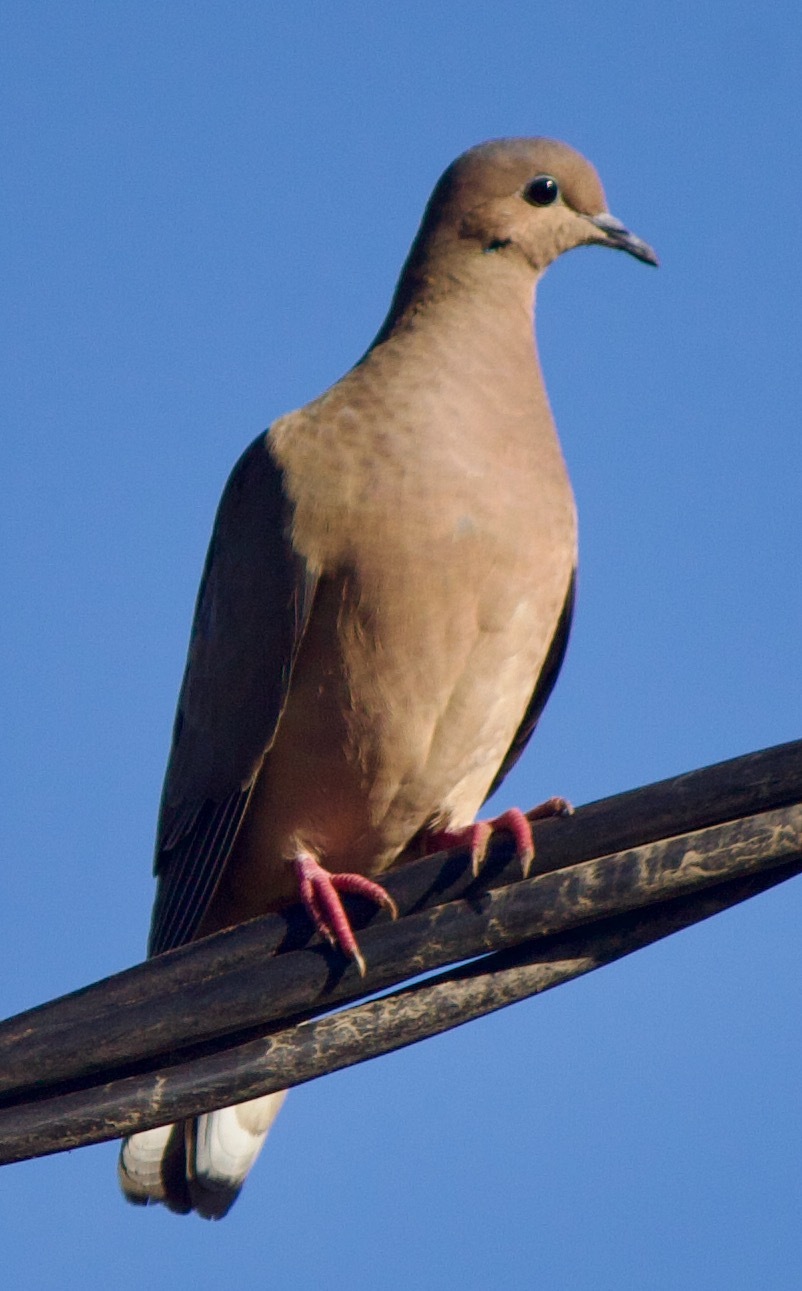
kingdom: Animalia
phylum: Chordata
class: Aves
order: Columbiformes
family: Columbidae
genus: Zenaida
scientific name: Zenaida auriculata
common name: Eared dove
